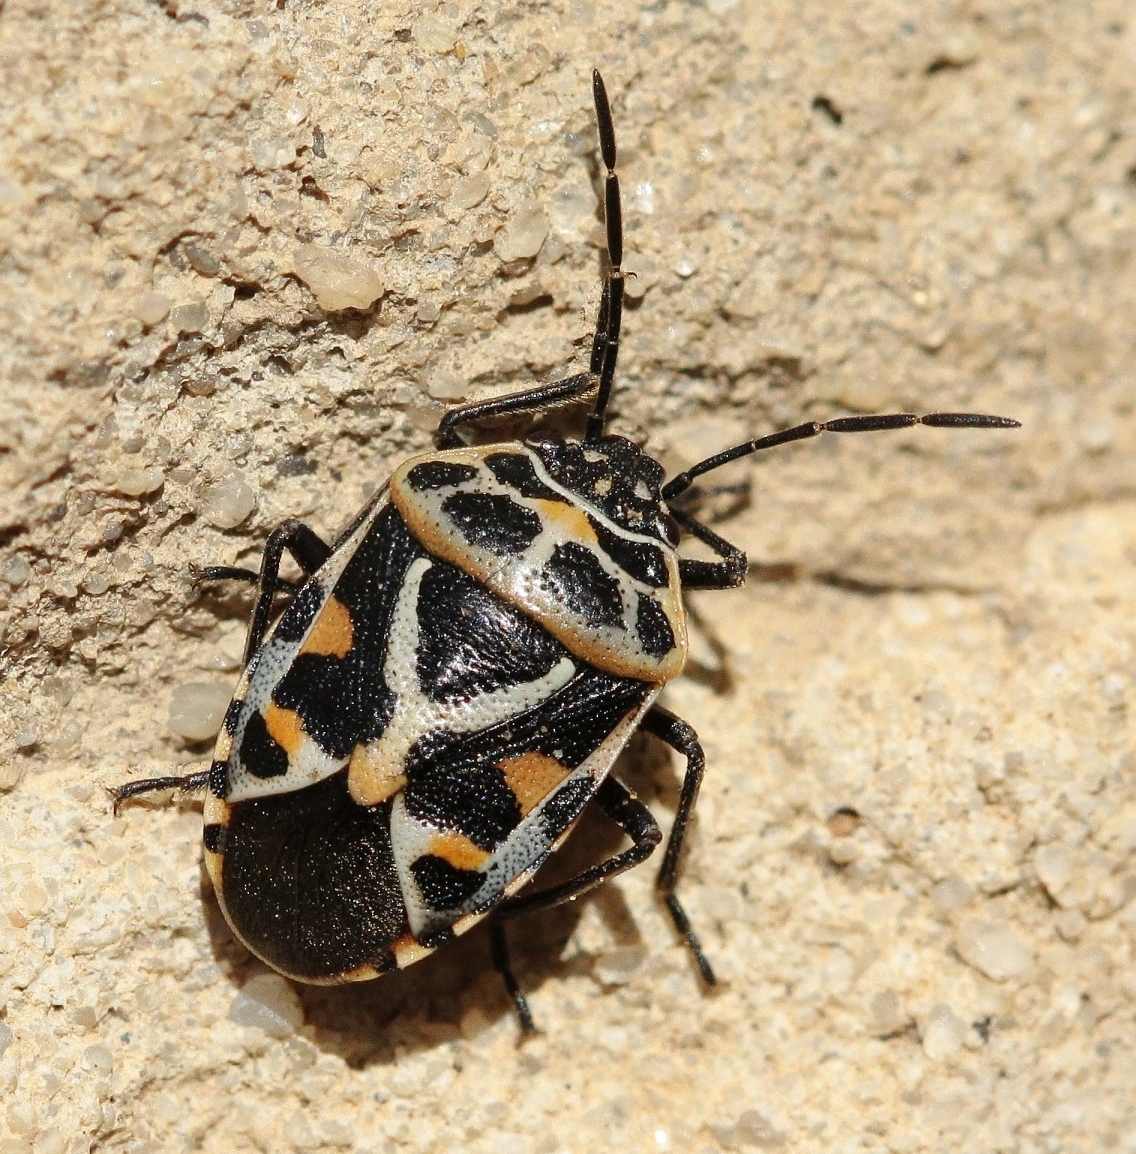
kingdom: Animalia
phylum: Arthropoda
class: Insecta
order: Hemiptera
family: Pentatomidae
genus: Eurydema
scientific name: Eurydema ornata
